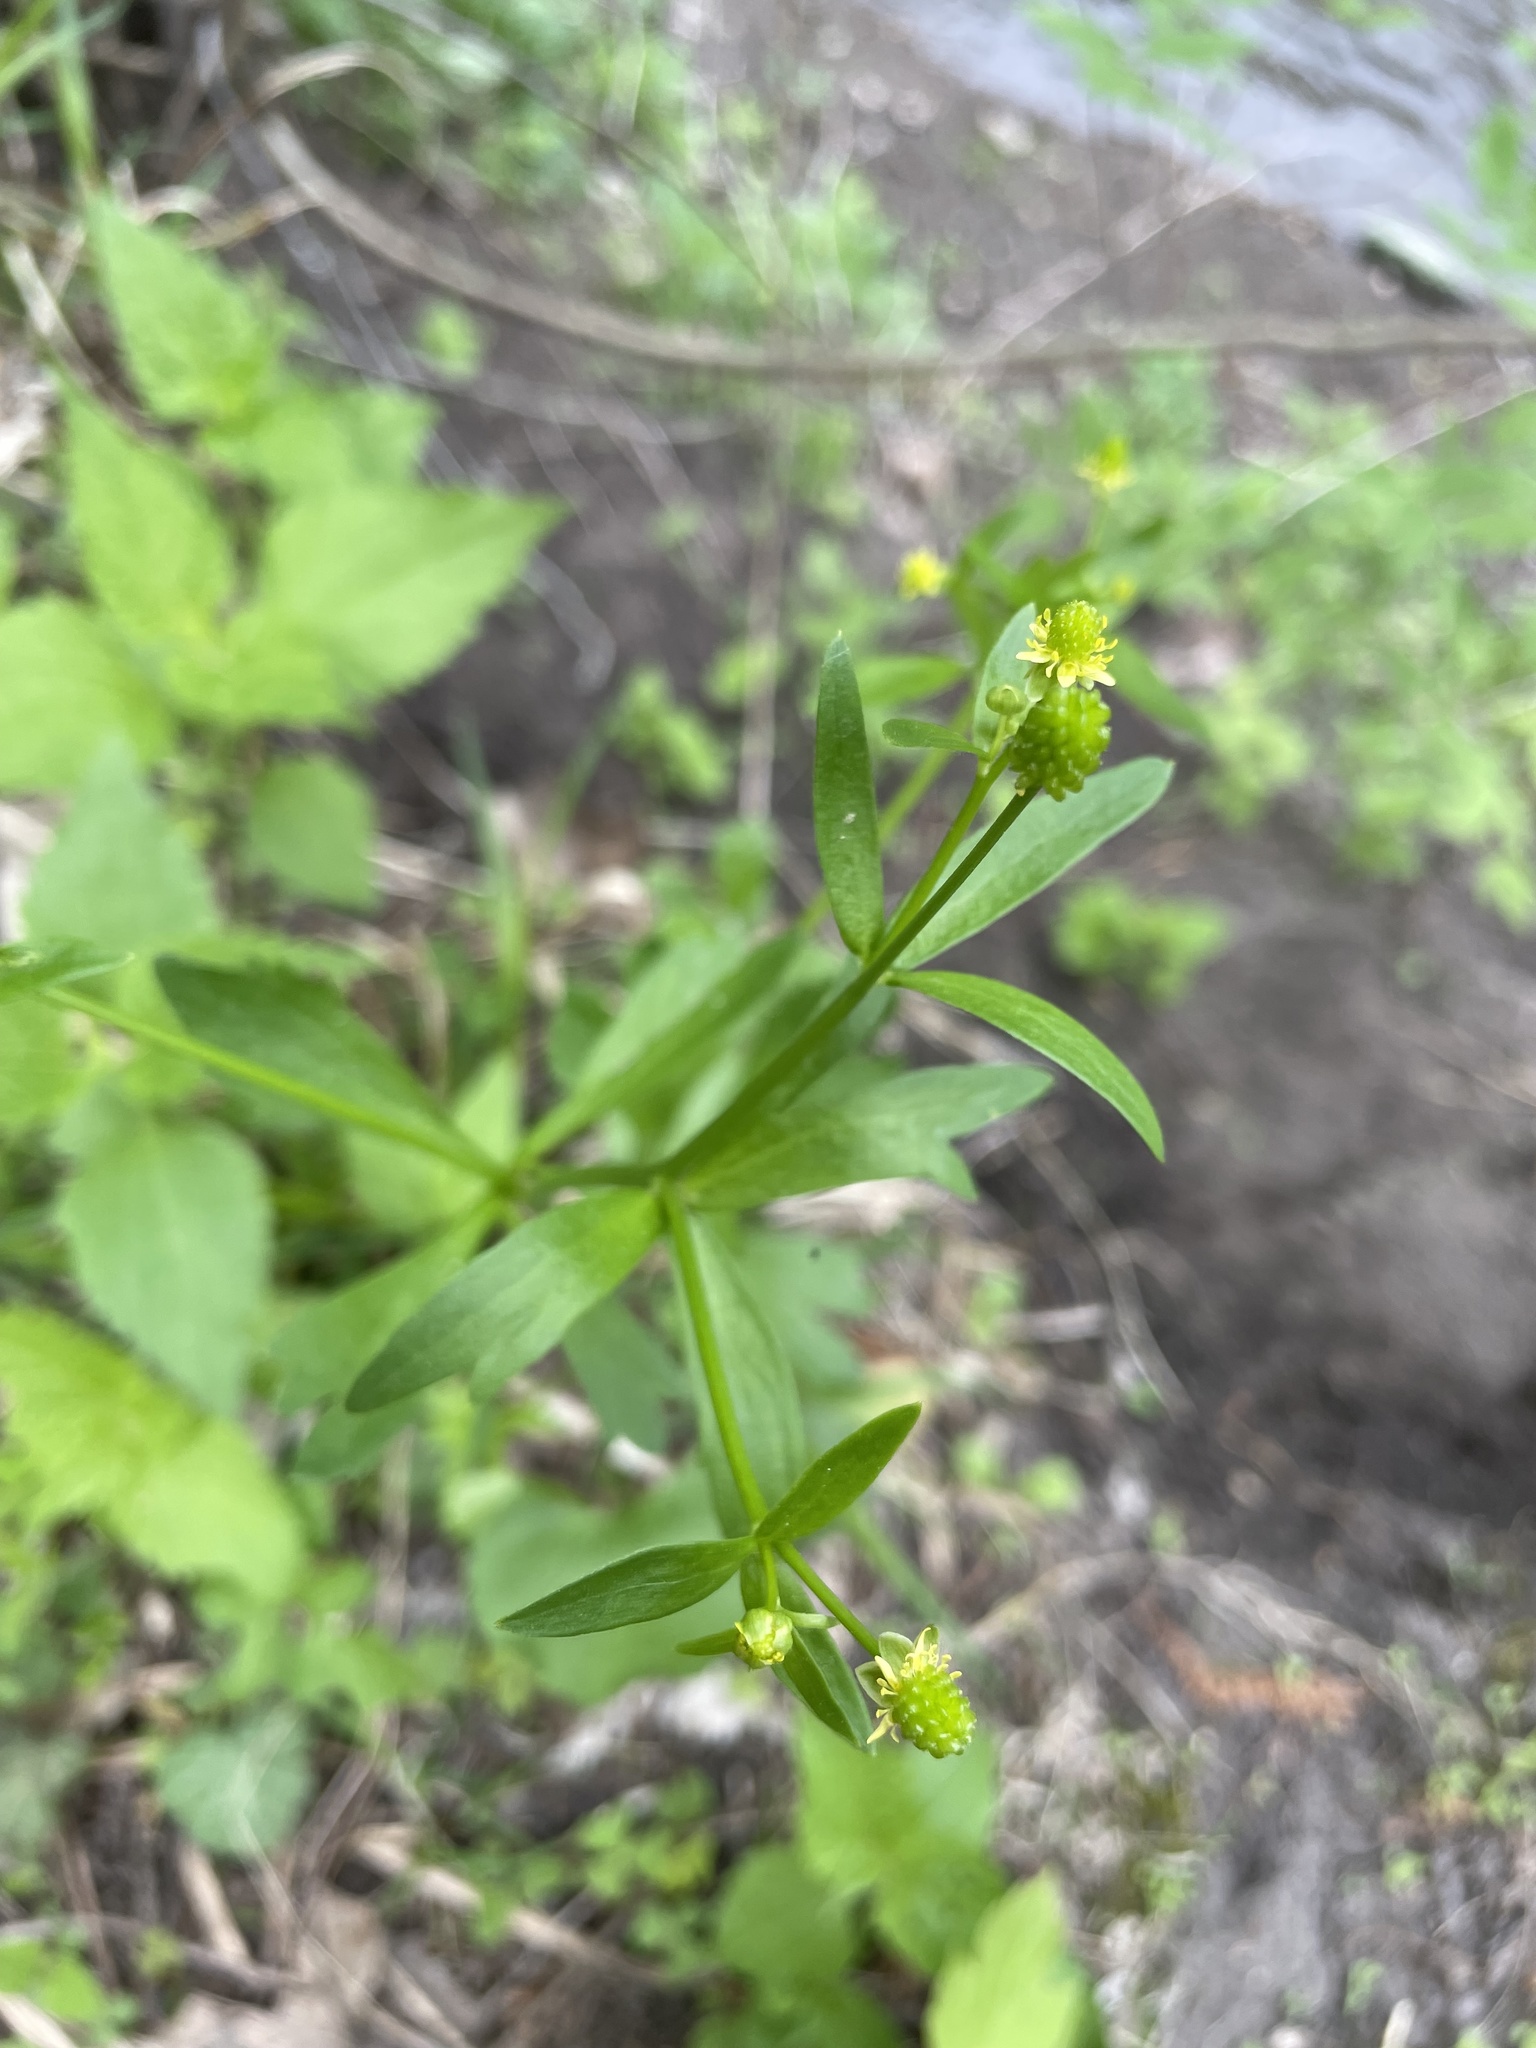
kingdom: Plantae
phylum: Tracheophyta
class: Magnoliopsida
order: Ranunculales
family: Ranunculaceae
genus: Ranunculus
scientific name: Ranunculus abortivus
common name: Early wood buttercup
